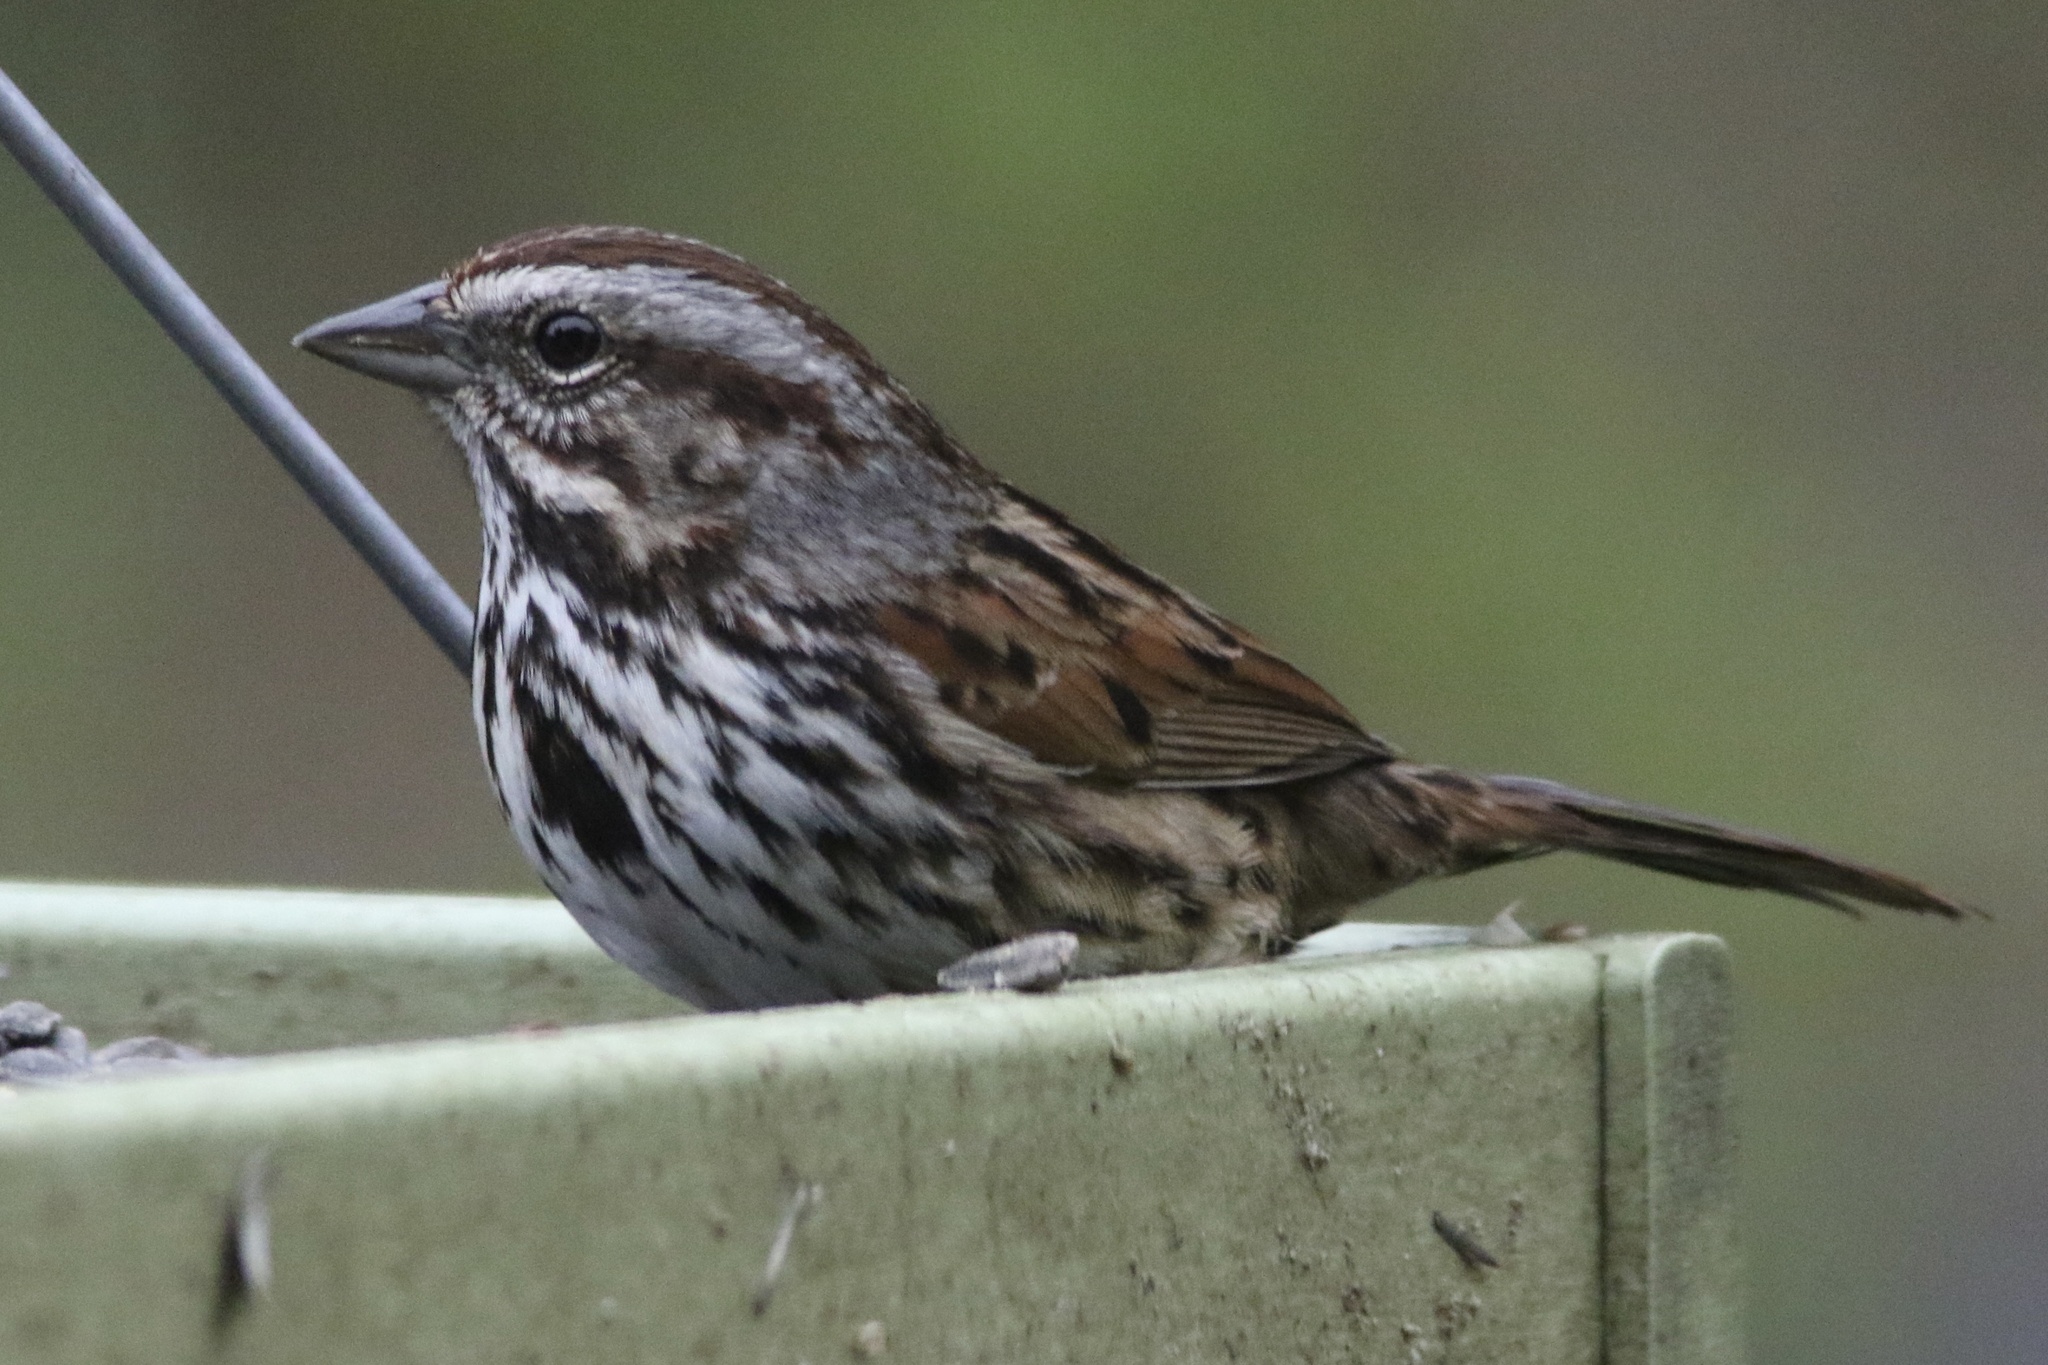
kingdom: Animalia
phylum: Chordata
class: Aves
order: Passeriformes
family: Passerellidae
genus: Melospiza
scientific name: Melospiza melodia
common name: Song sparrow
